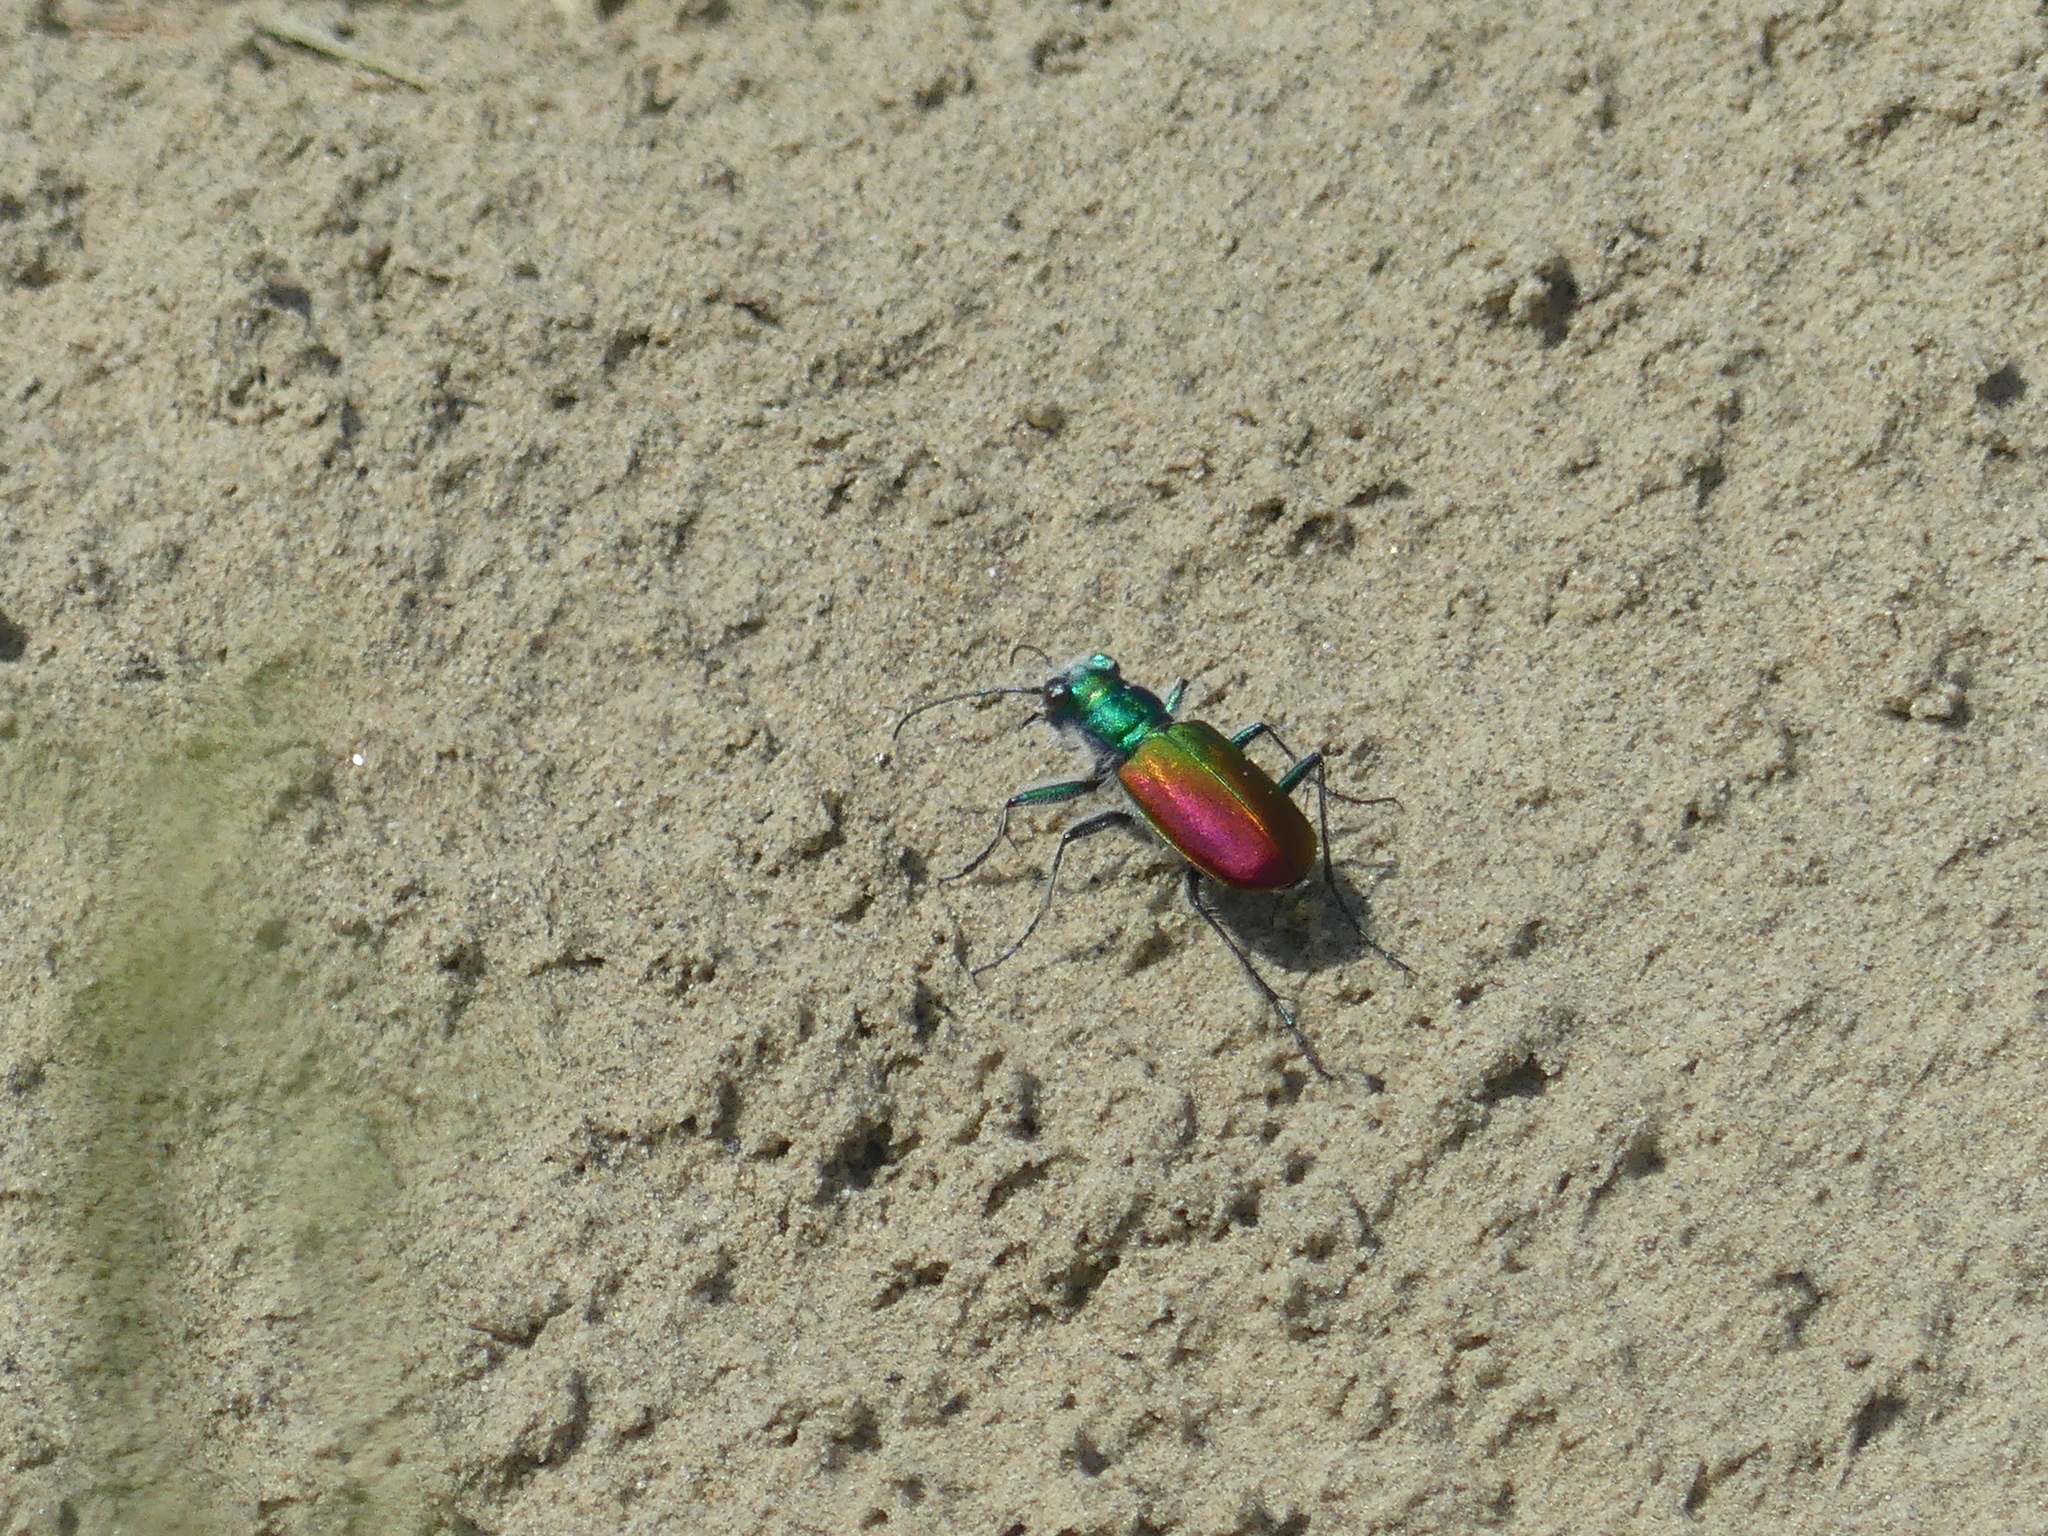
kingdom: Animalia
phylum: Arthropoda
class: Insecta
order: Coleoptera
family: Carabidae
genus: Cicindela
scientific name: Cicindela scutellaris
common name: Festive tiger beetle
